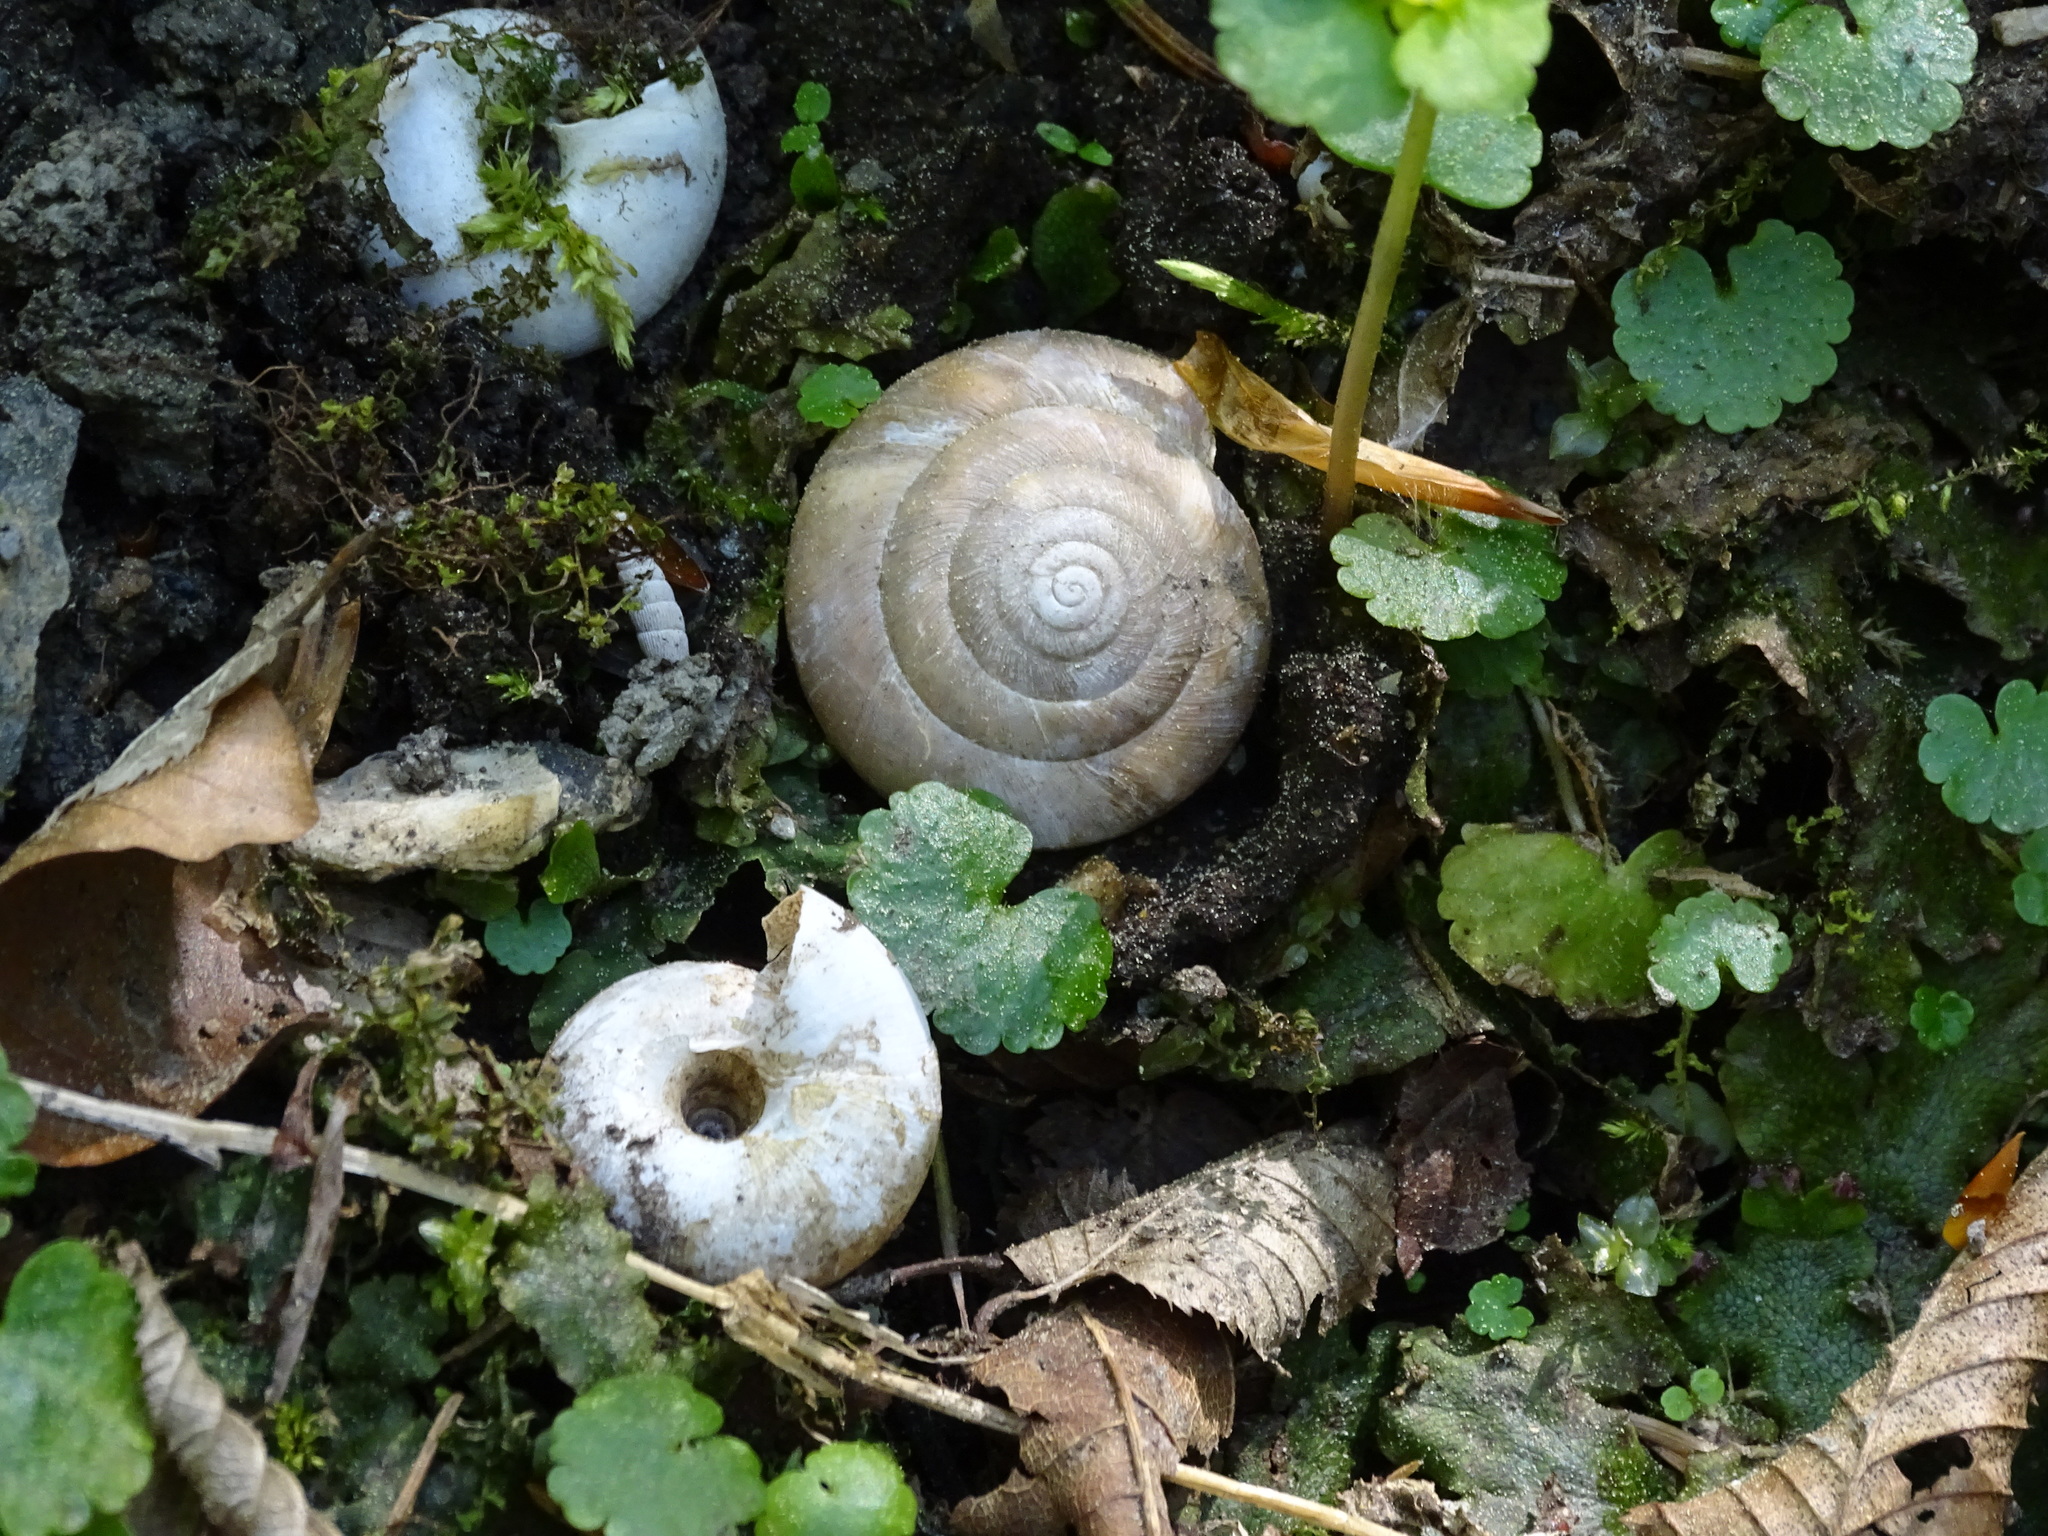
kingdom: Animalia
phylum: Mollusca
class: Gastropoda
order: Stylommatophora
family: Zonitidae
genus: Aegopis
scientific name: Aegopis verticillus
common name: Giant glass snail
